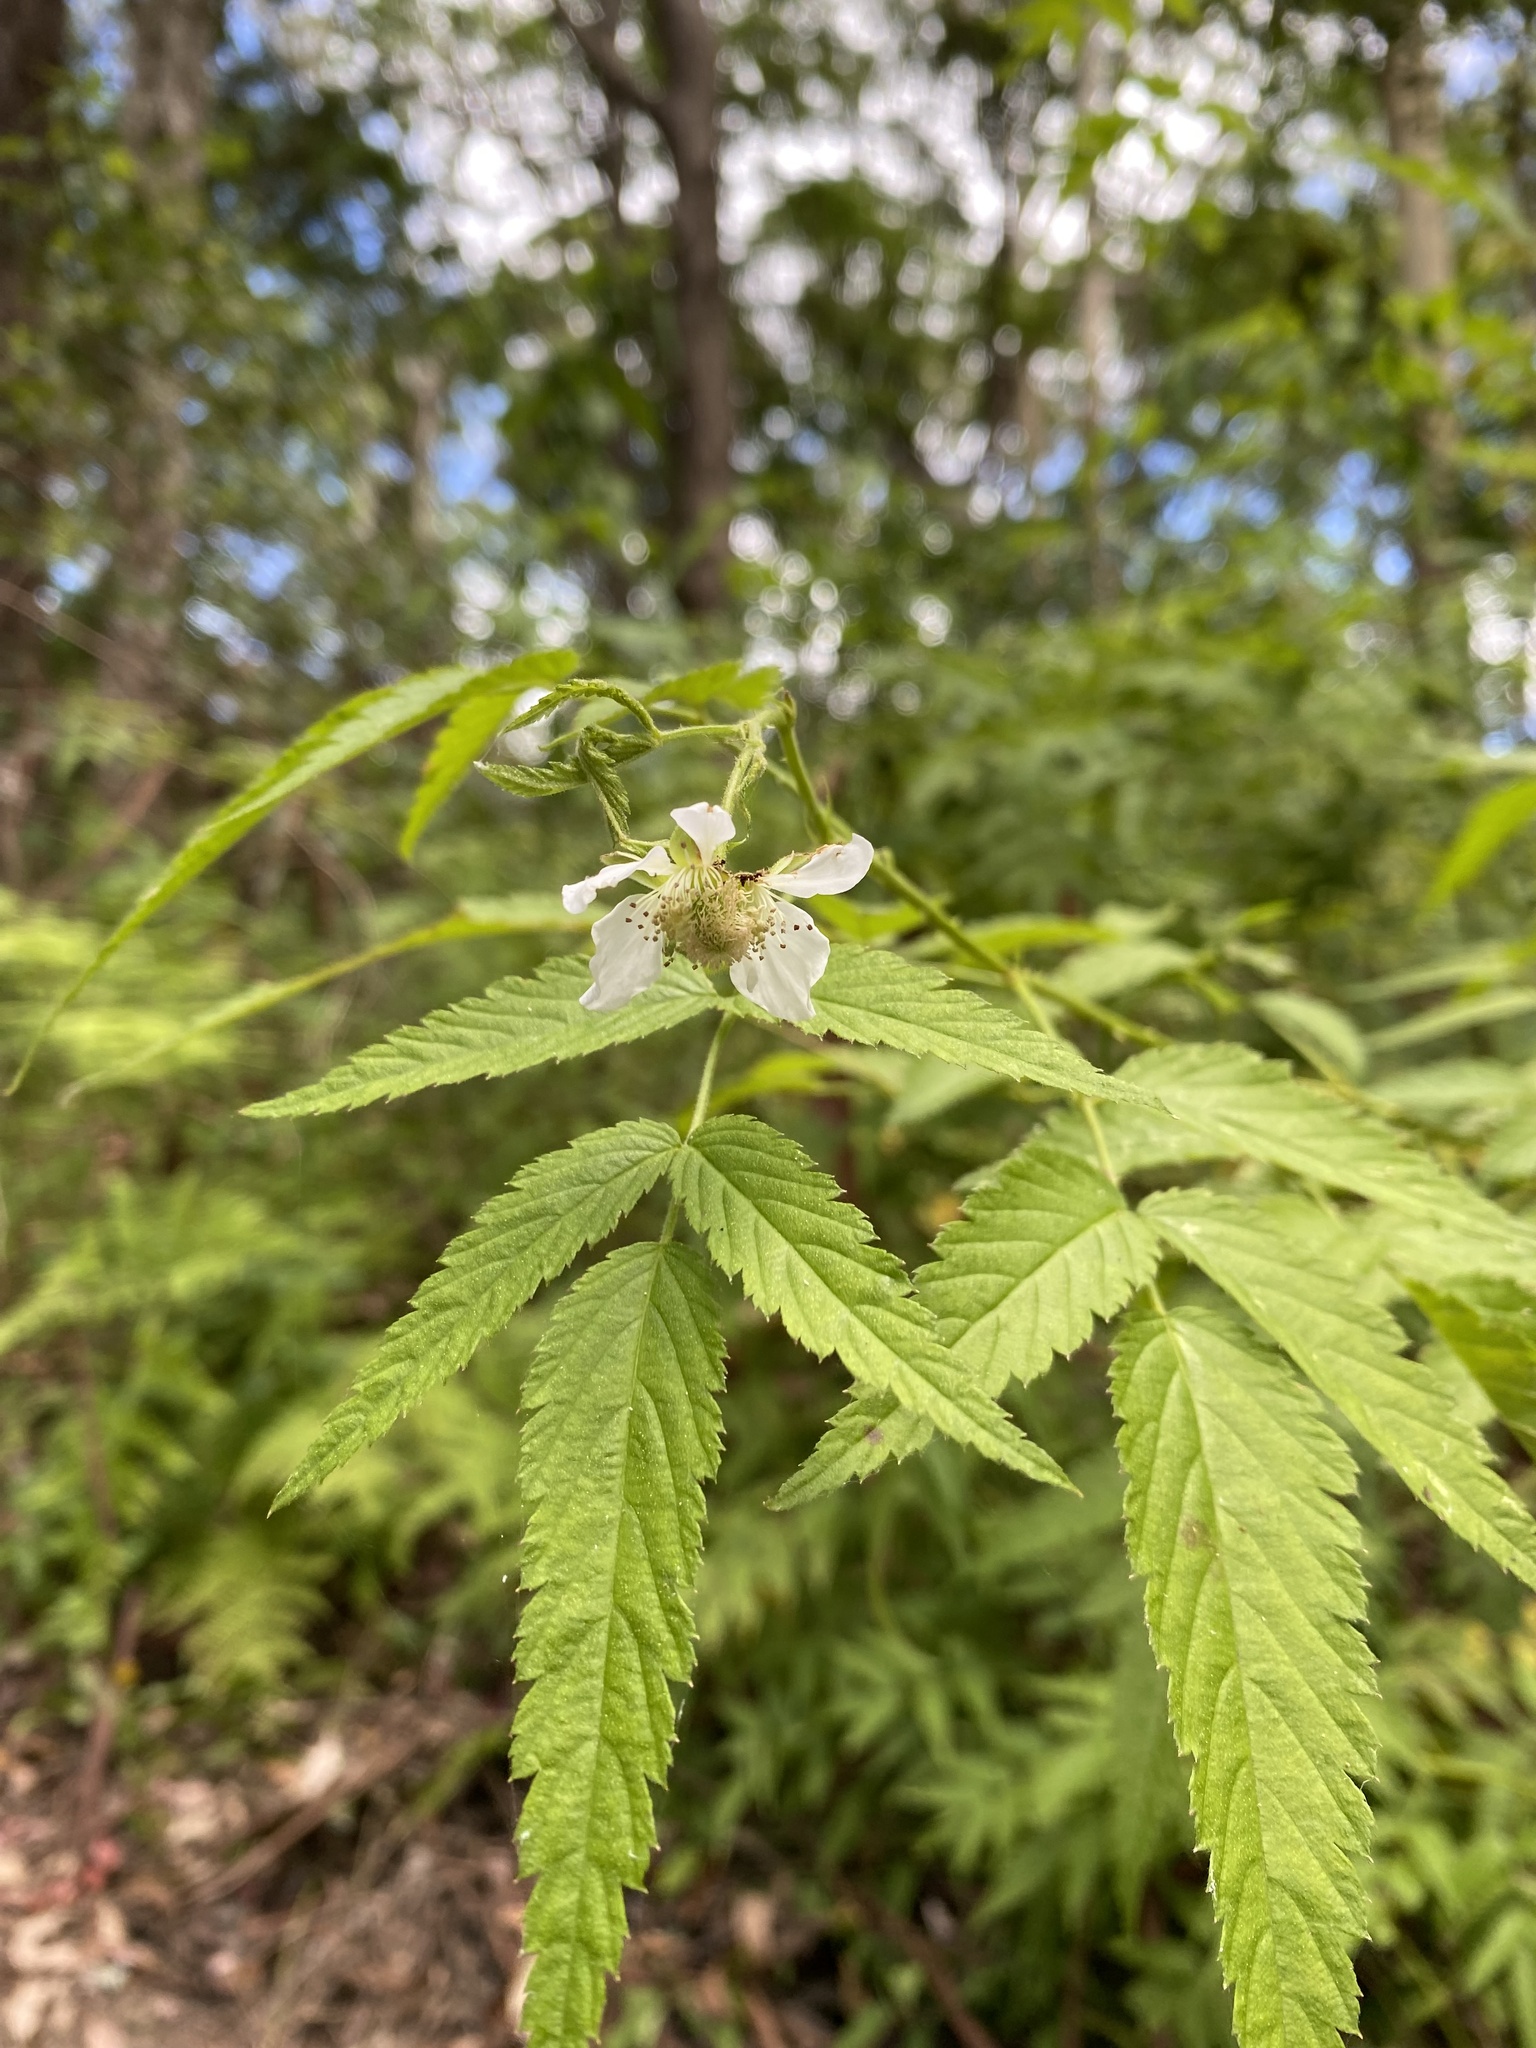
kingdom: Plantae
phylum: Tracheophyta
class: Magnoliopsida
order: Rosales
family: Rosaceae
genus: Rubus
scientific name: Rubus rosifolius
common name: Roseleaf raspberry
